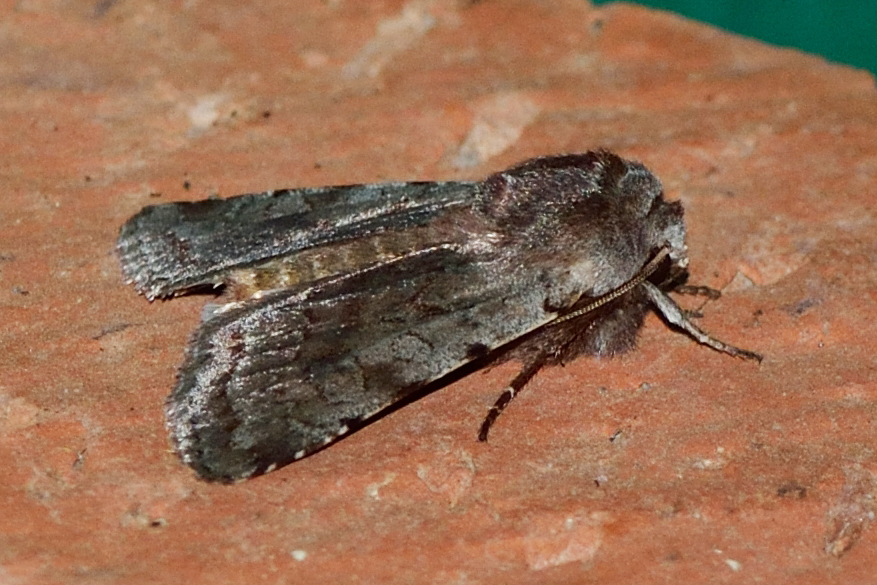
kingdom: Animalia
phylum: Arthropoda
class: Insecta
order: Lepidoptera
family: Noctuidae
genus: Cerastis
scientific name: Cerastis rubricosa
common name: Red chestnut
